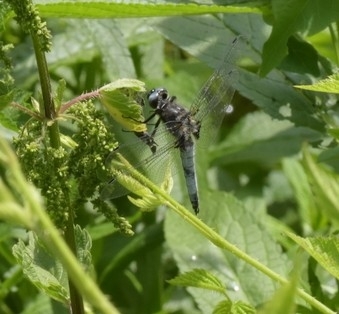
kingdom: Animalia
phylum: Arthropoda
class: Insecta
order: Odonata
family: Libellulidae
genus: Libellula
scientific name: Libellula fulva
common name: Blue chaser
